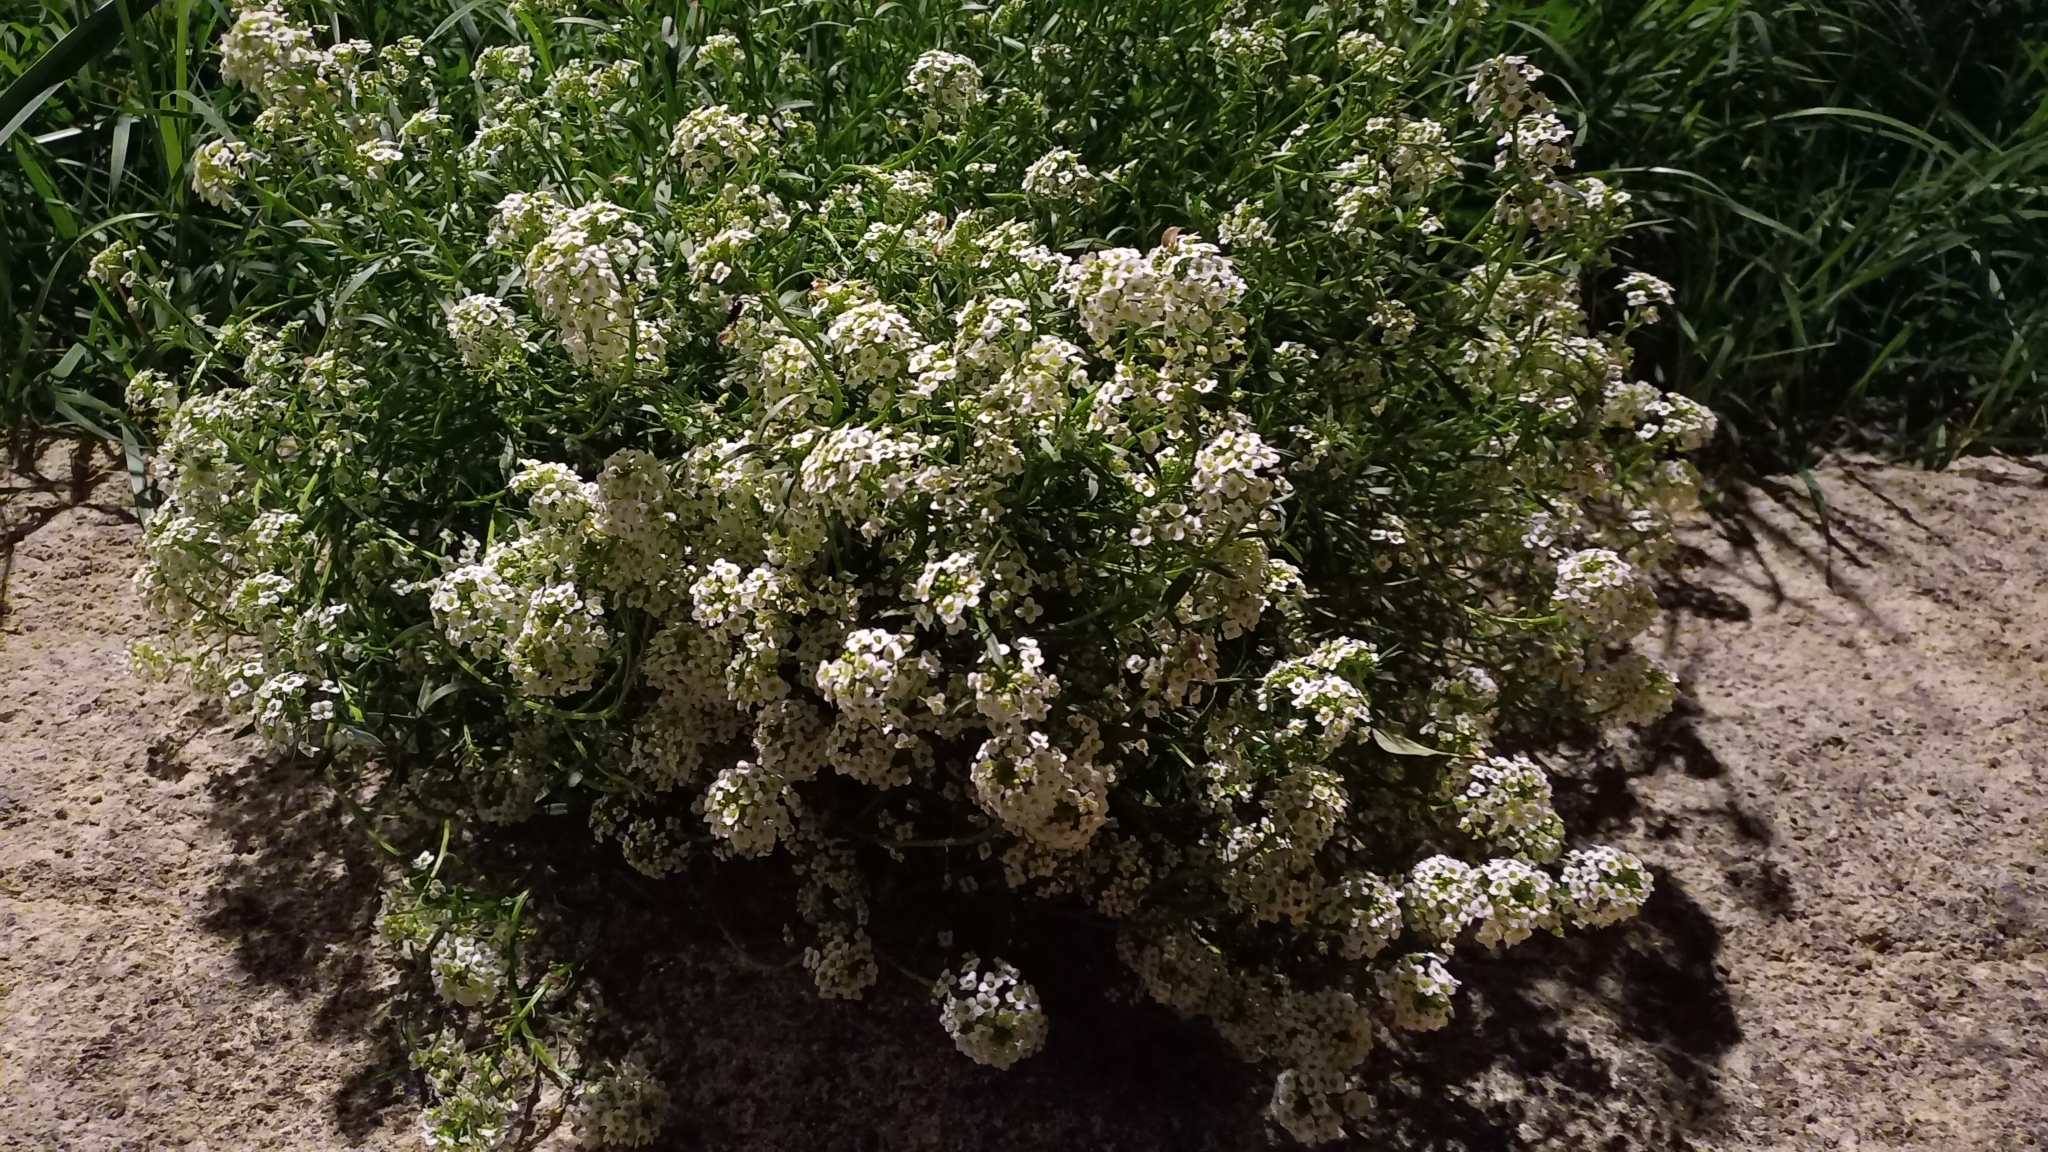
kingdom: Plantae
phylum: Tracheophyta
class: Magnoliopsida
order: Brassicales
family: Brassicaceae
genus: Lobularia
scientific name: Lobularia maritima
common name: Sweet alison
